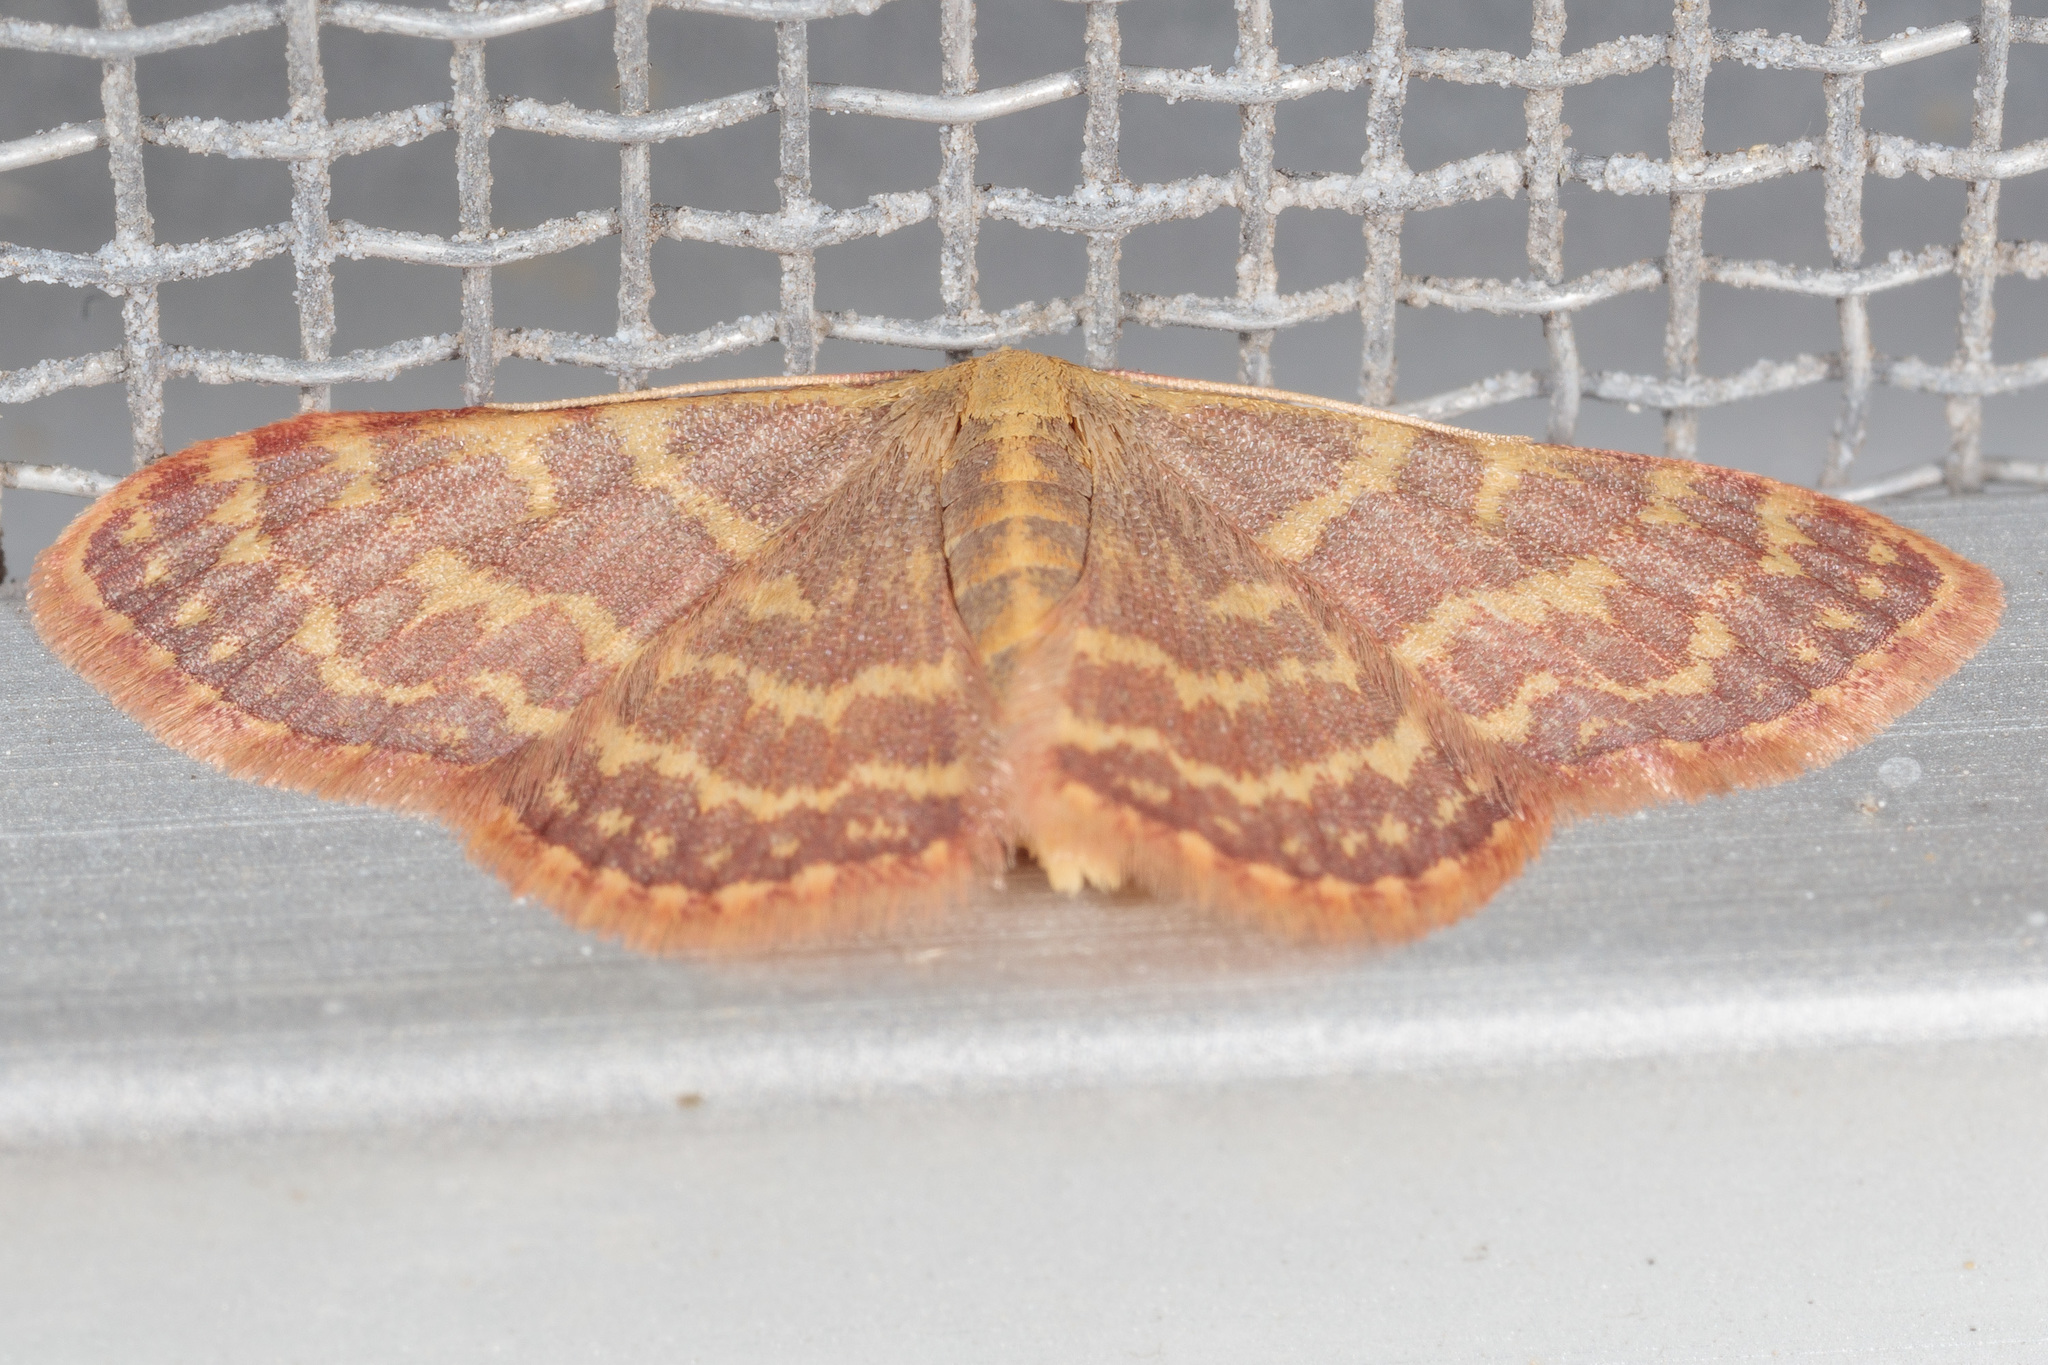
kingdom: Animalia
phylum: Arthropoda
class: Insecta
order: Lepidoptera
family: Geometridae
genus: Leptostales
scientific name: Leptostales pannaria
